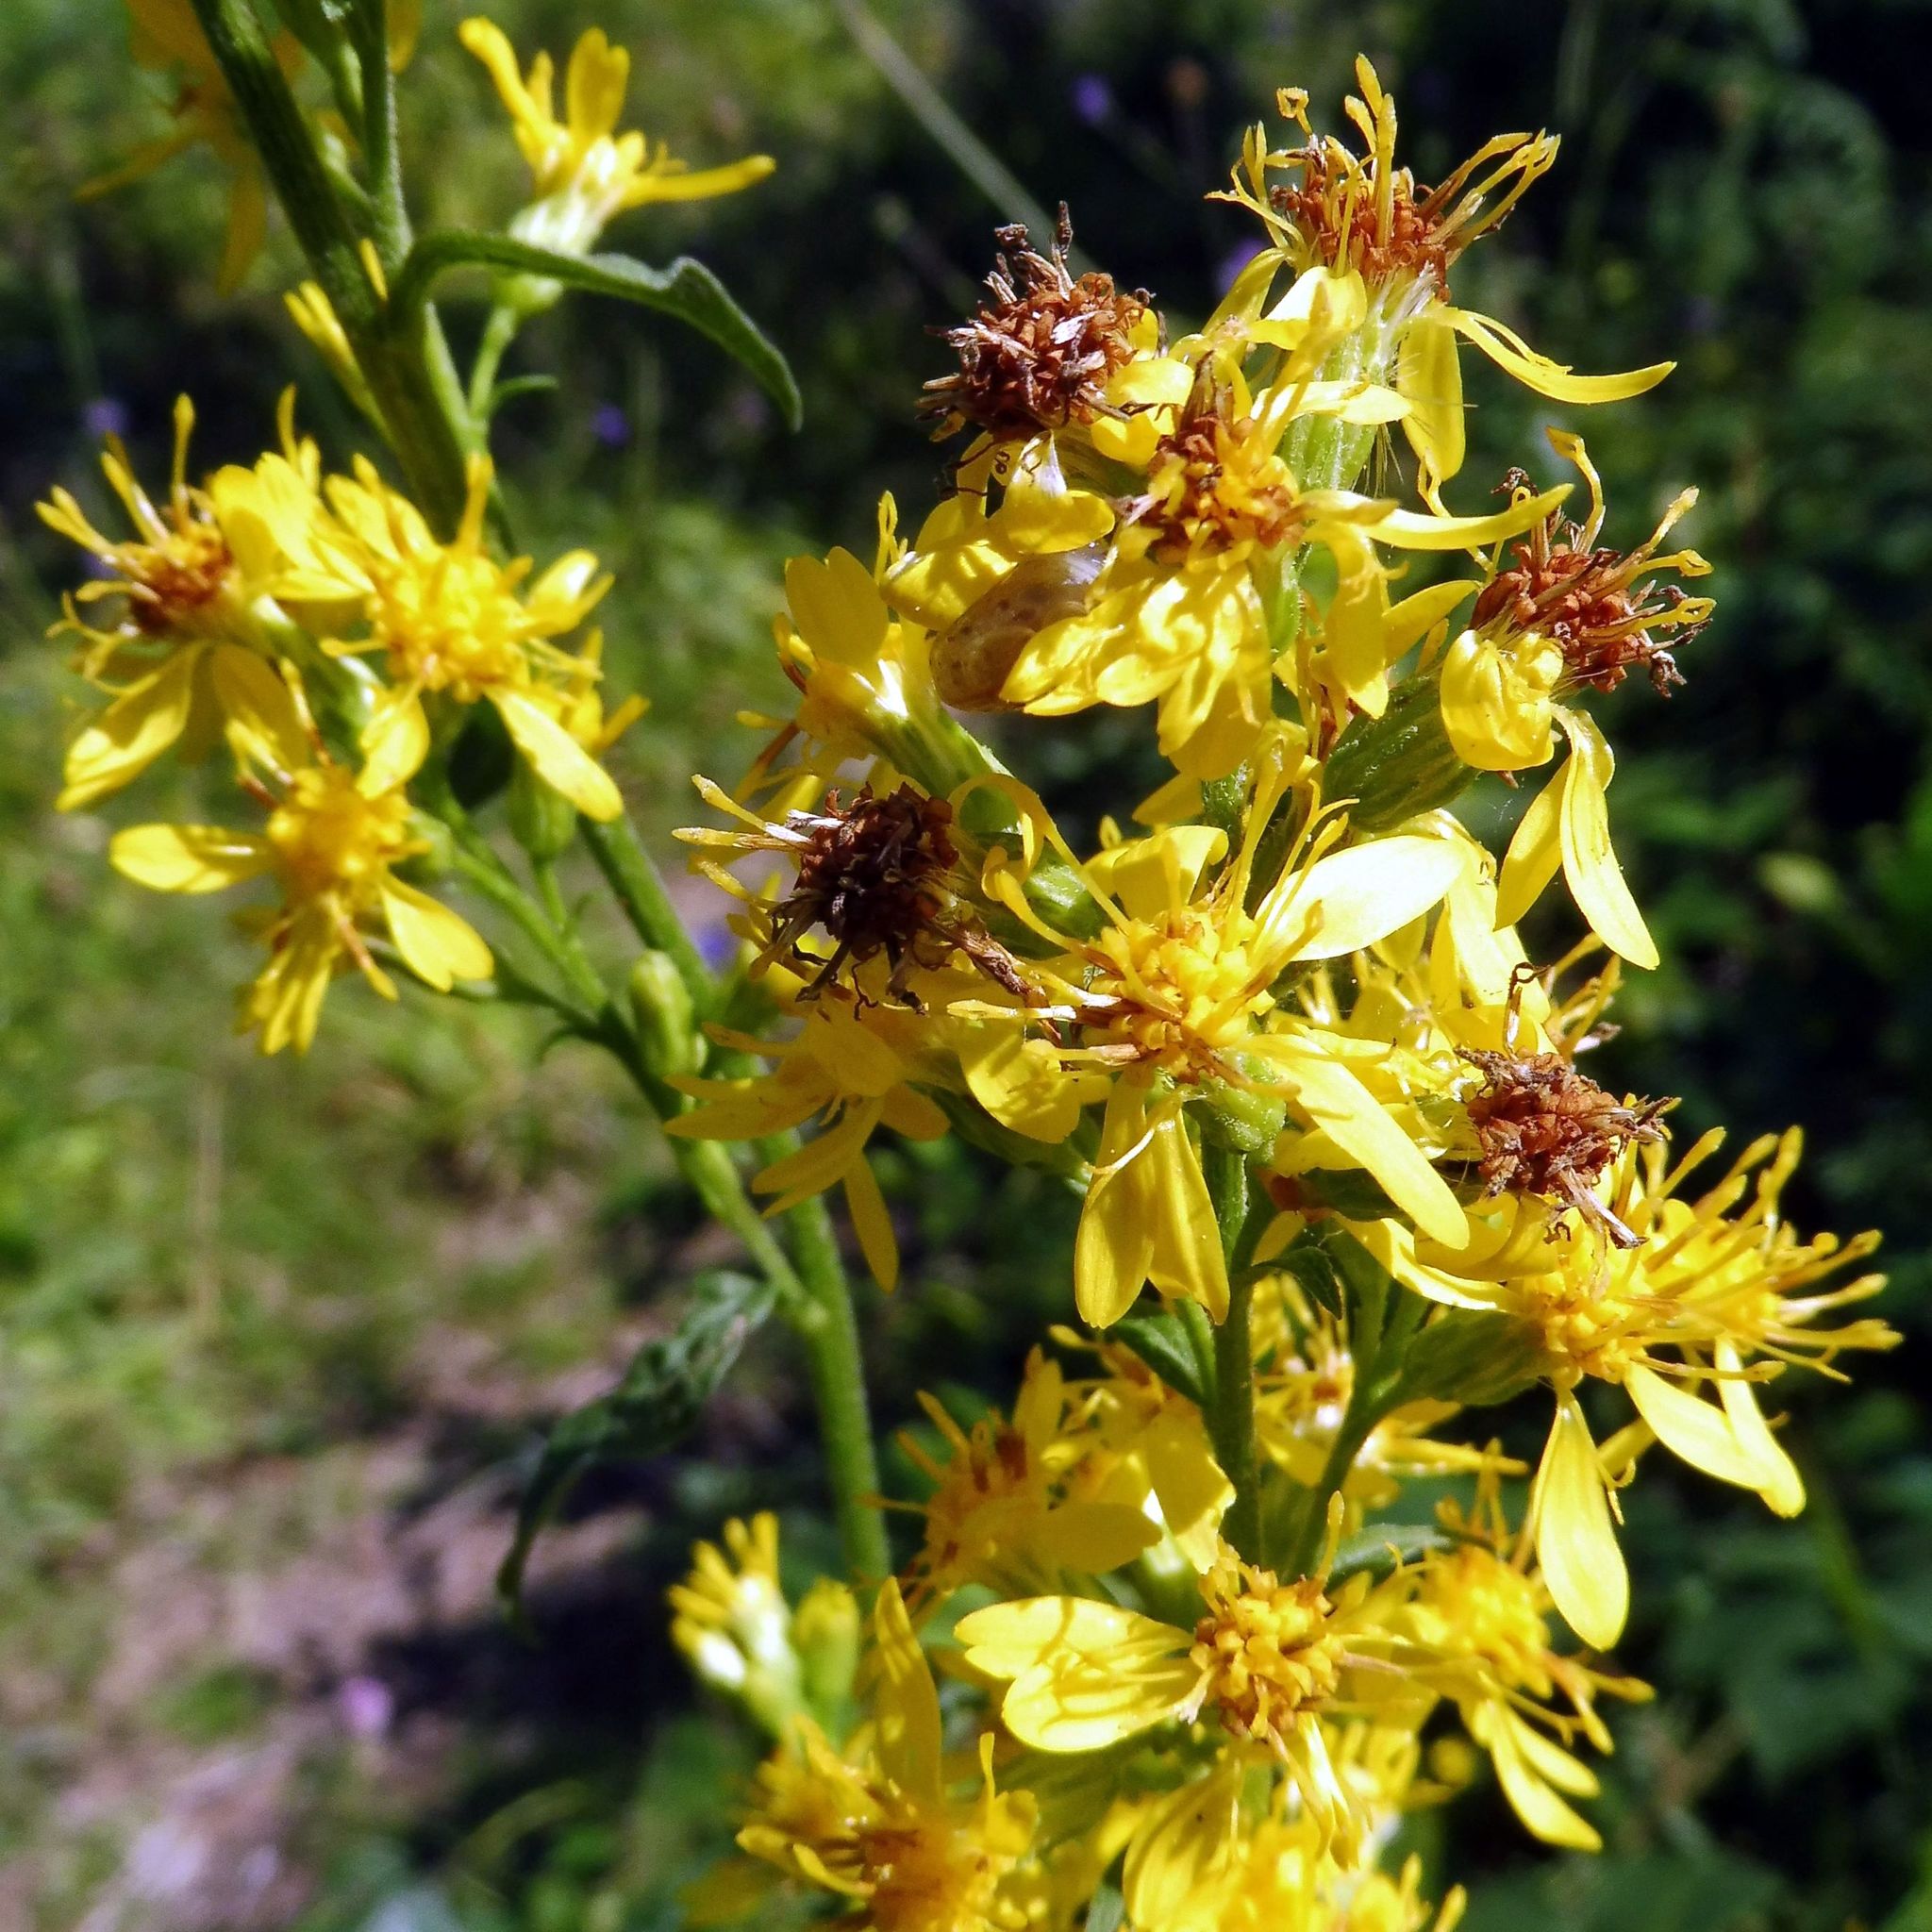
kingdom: Plantae
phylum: Tracheophyta
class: Magnoliopsida
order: Asterales
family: Asteraceae
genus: Solidago
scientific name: Solidago virgaurea
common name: Goldenrod
